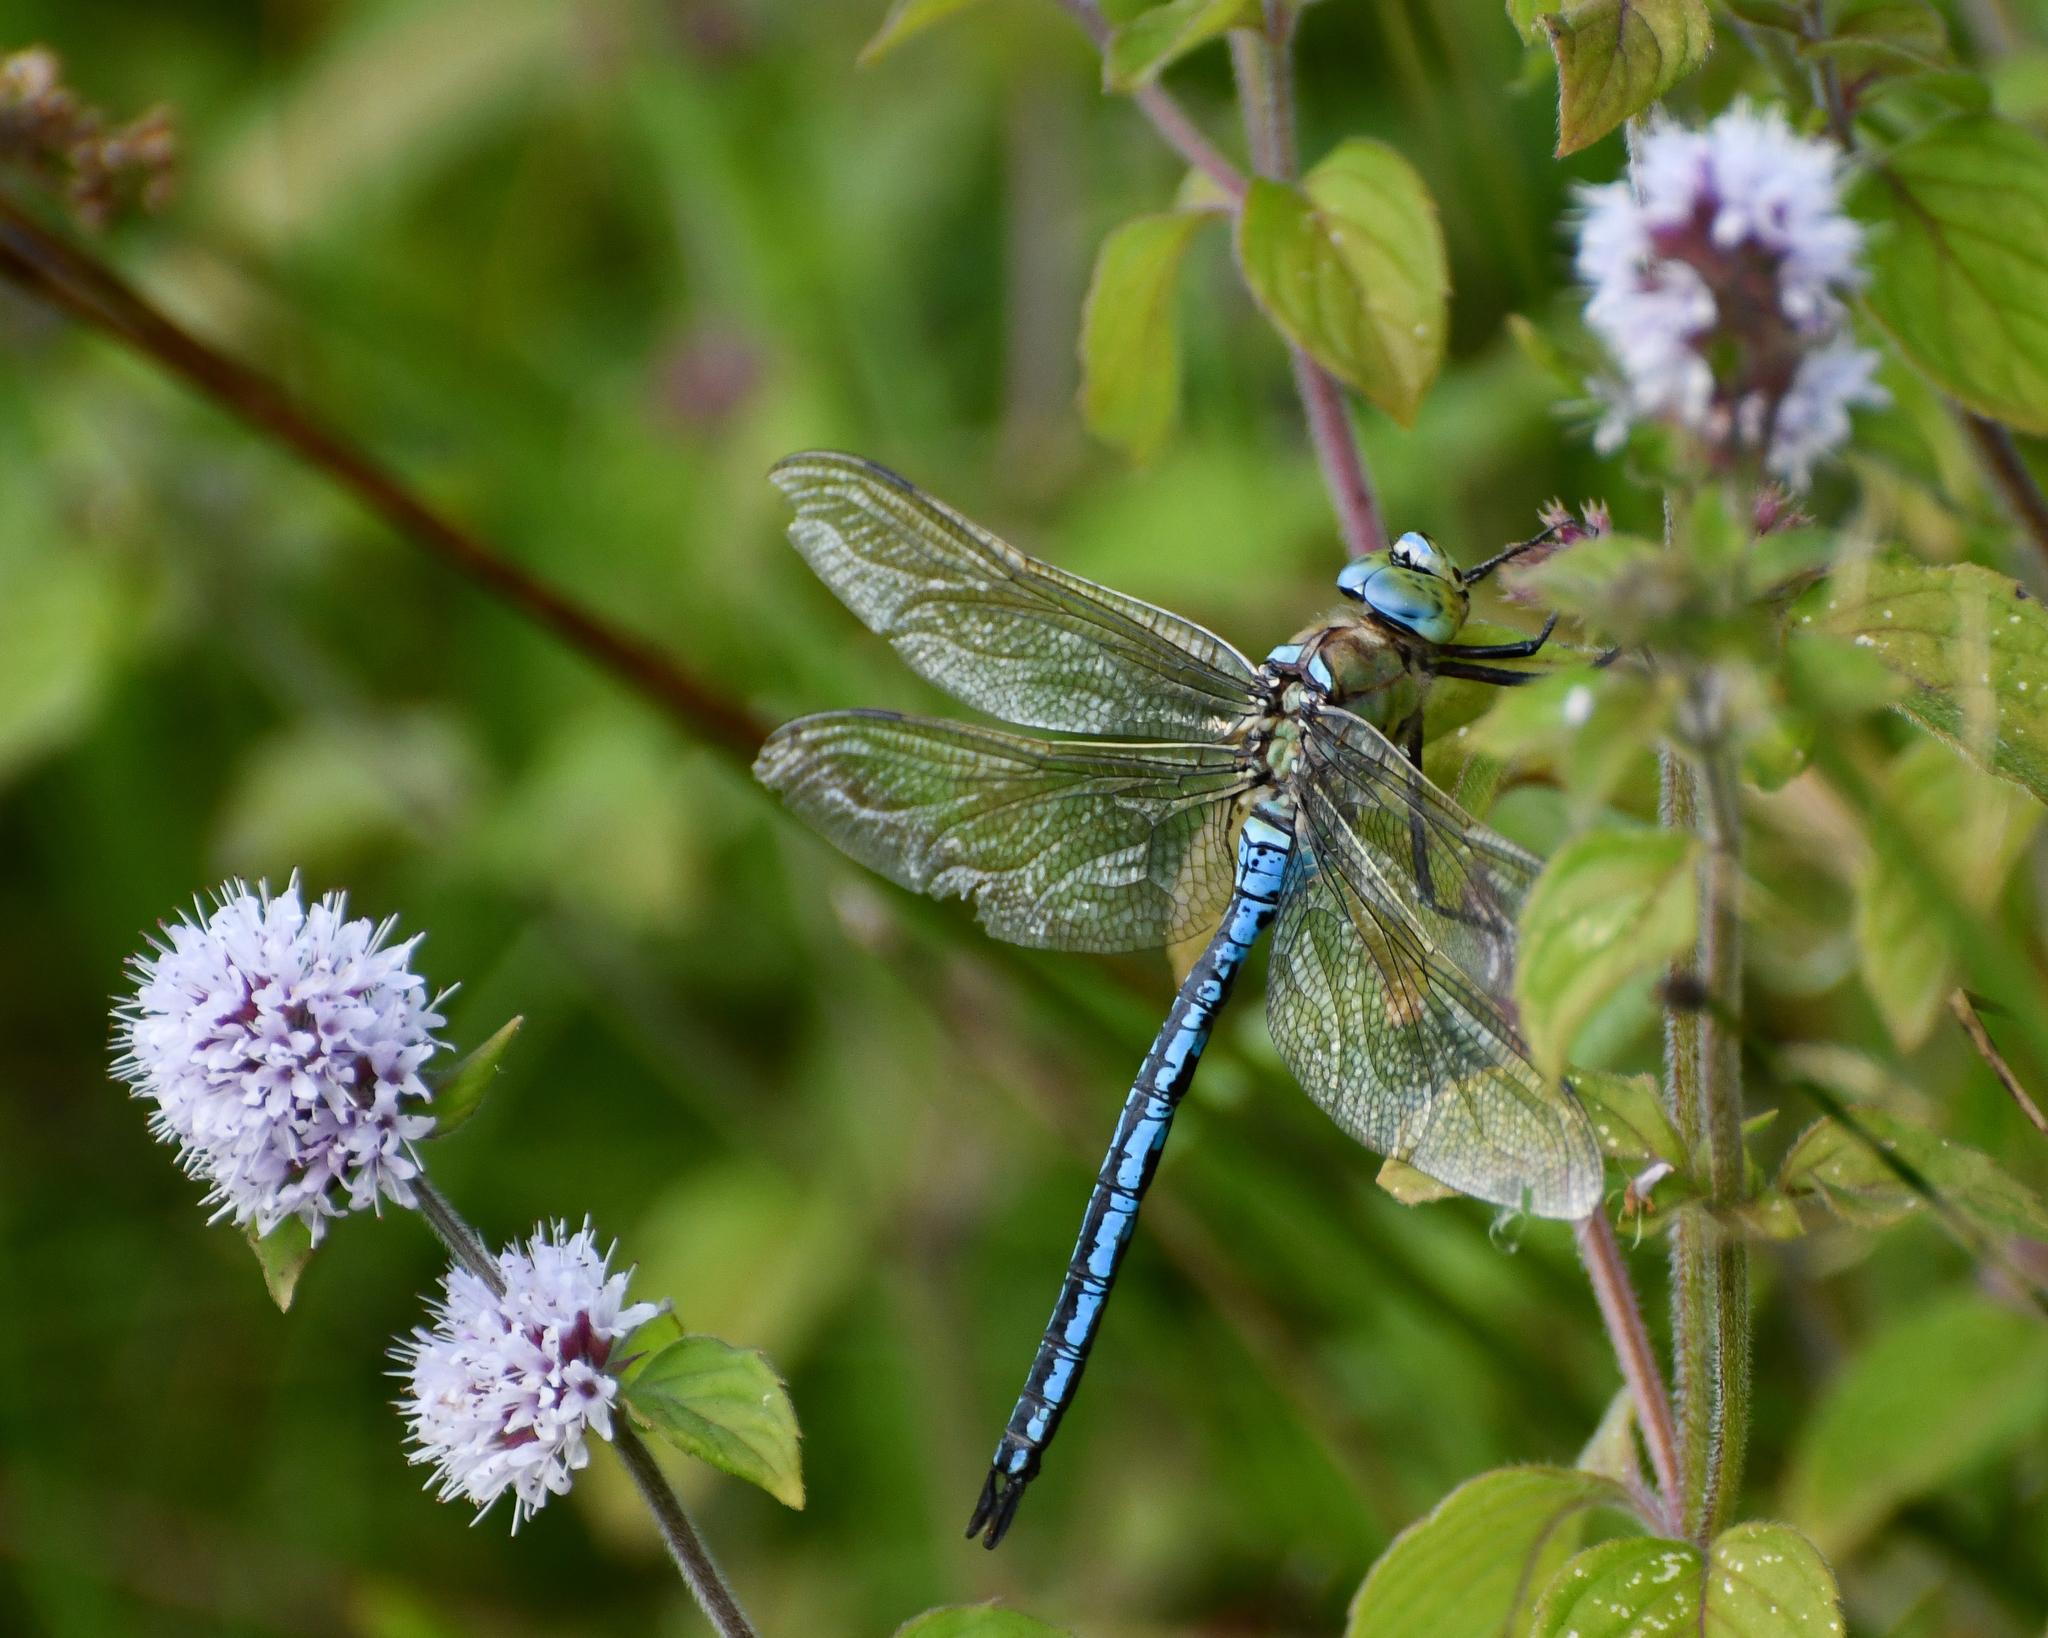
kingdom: Animalia
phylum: Arthropoda
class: Insecta
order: Odonata
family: Aeshnidae
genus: Anax
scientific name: Anax imperator
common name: Emperor dragonfly
